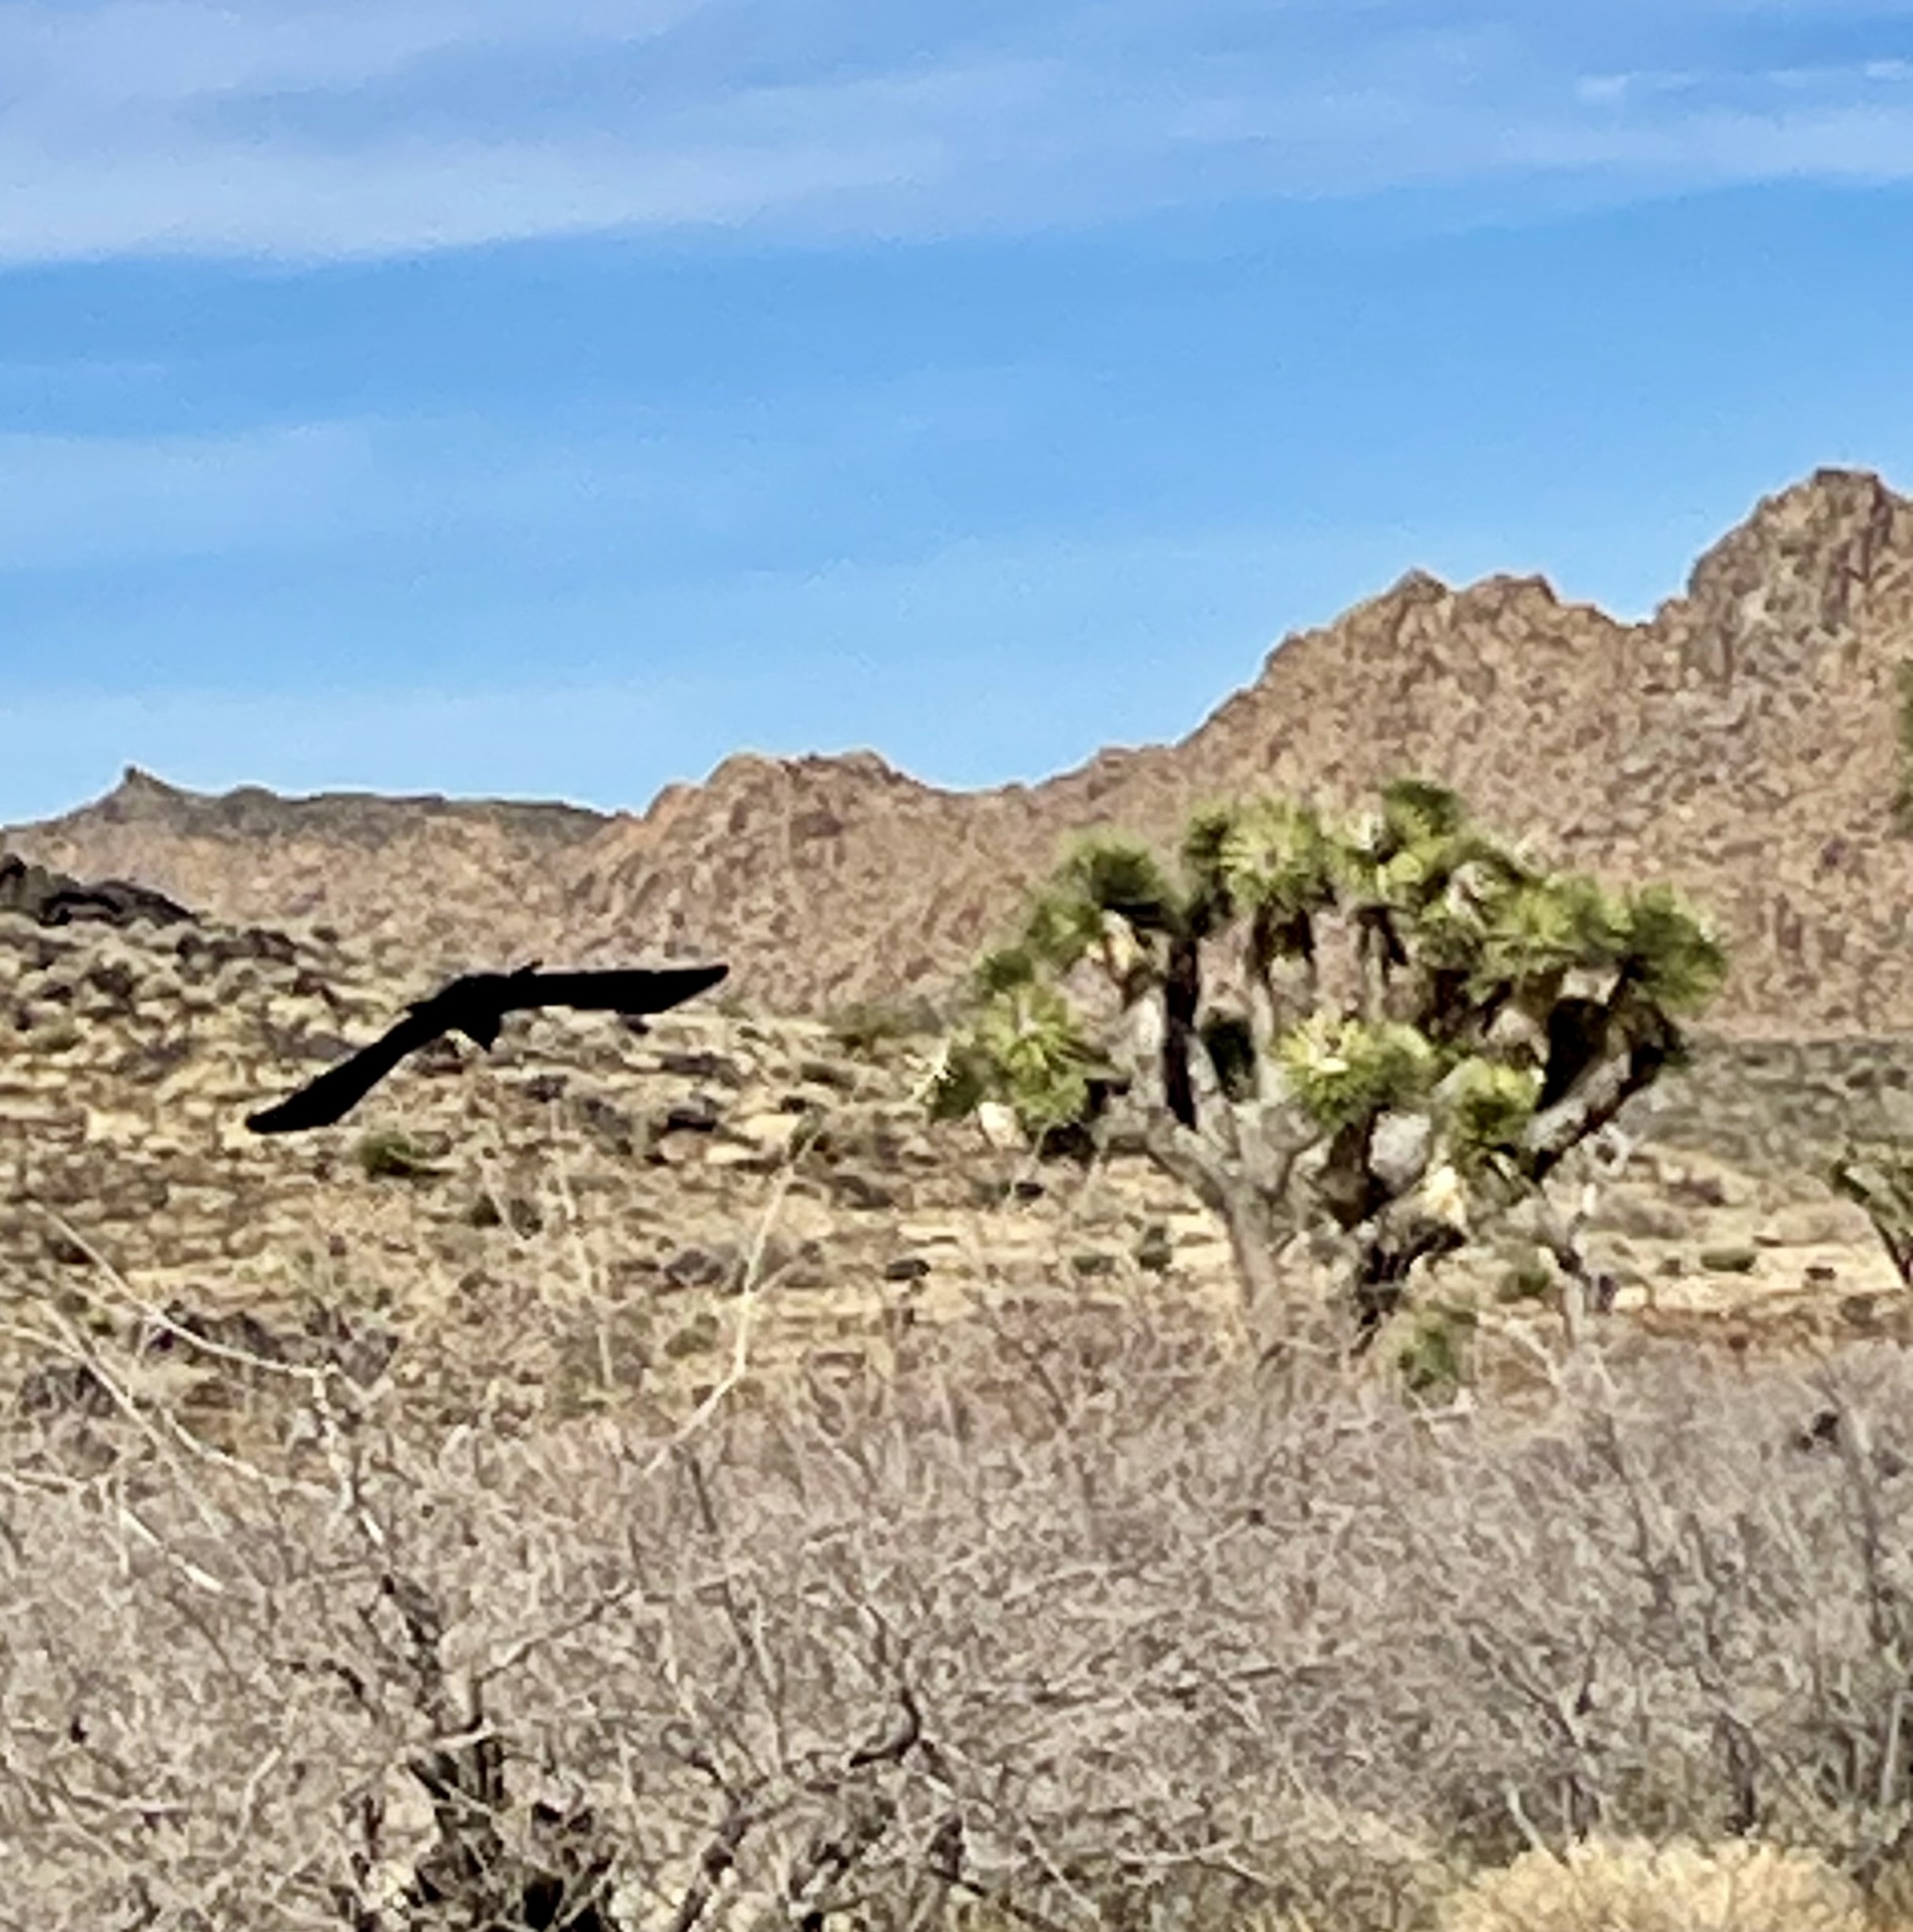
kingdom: Animalia
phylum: Chordata
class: Aves
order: Passeriformes
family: Corvidae
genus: Corvus
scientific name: Corvus corax
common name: Common raven
